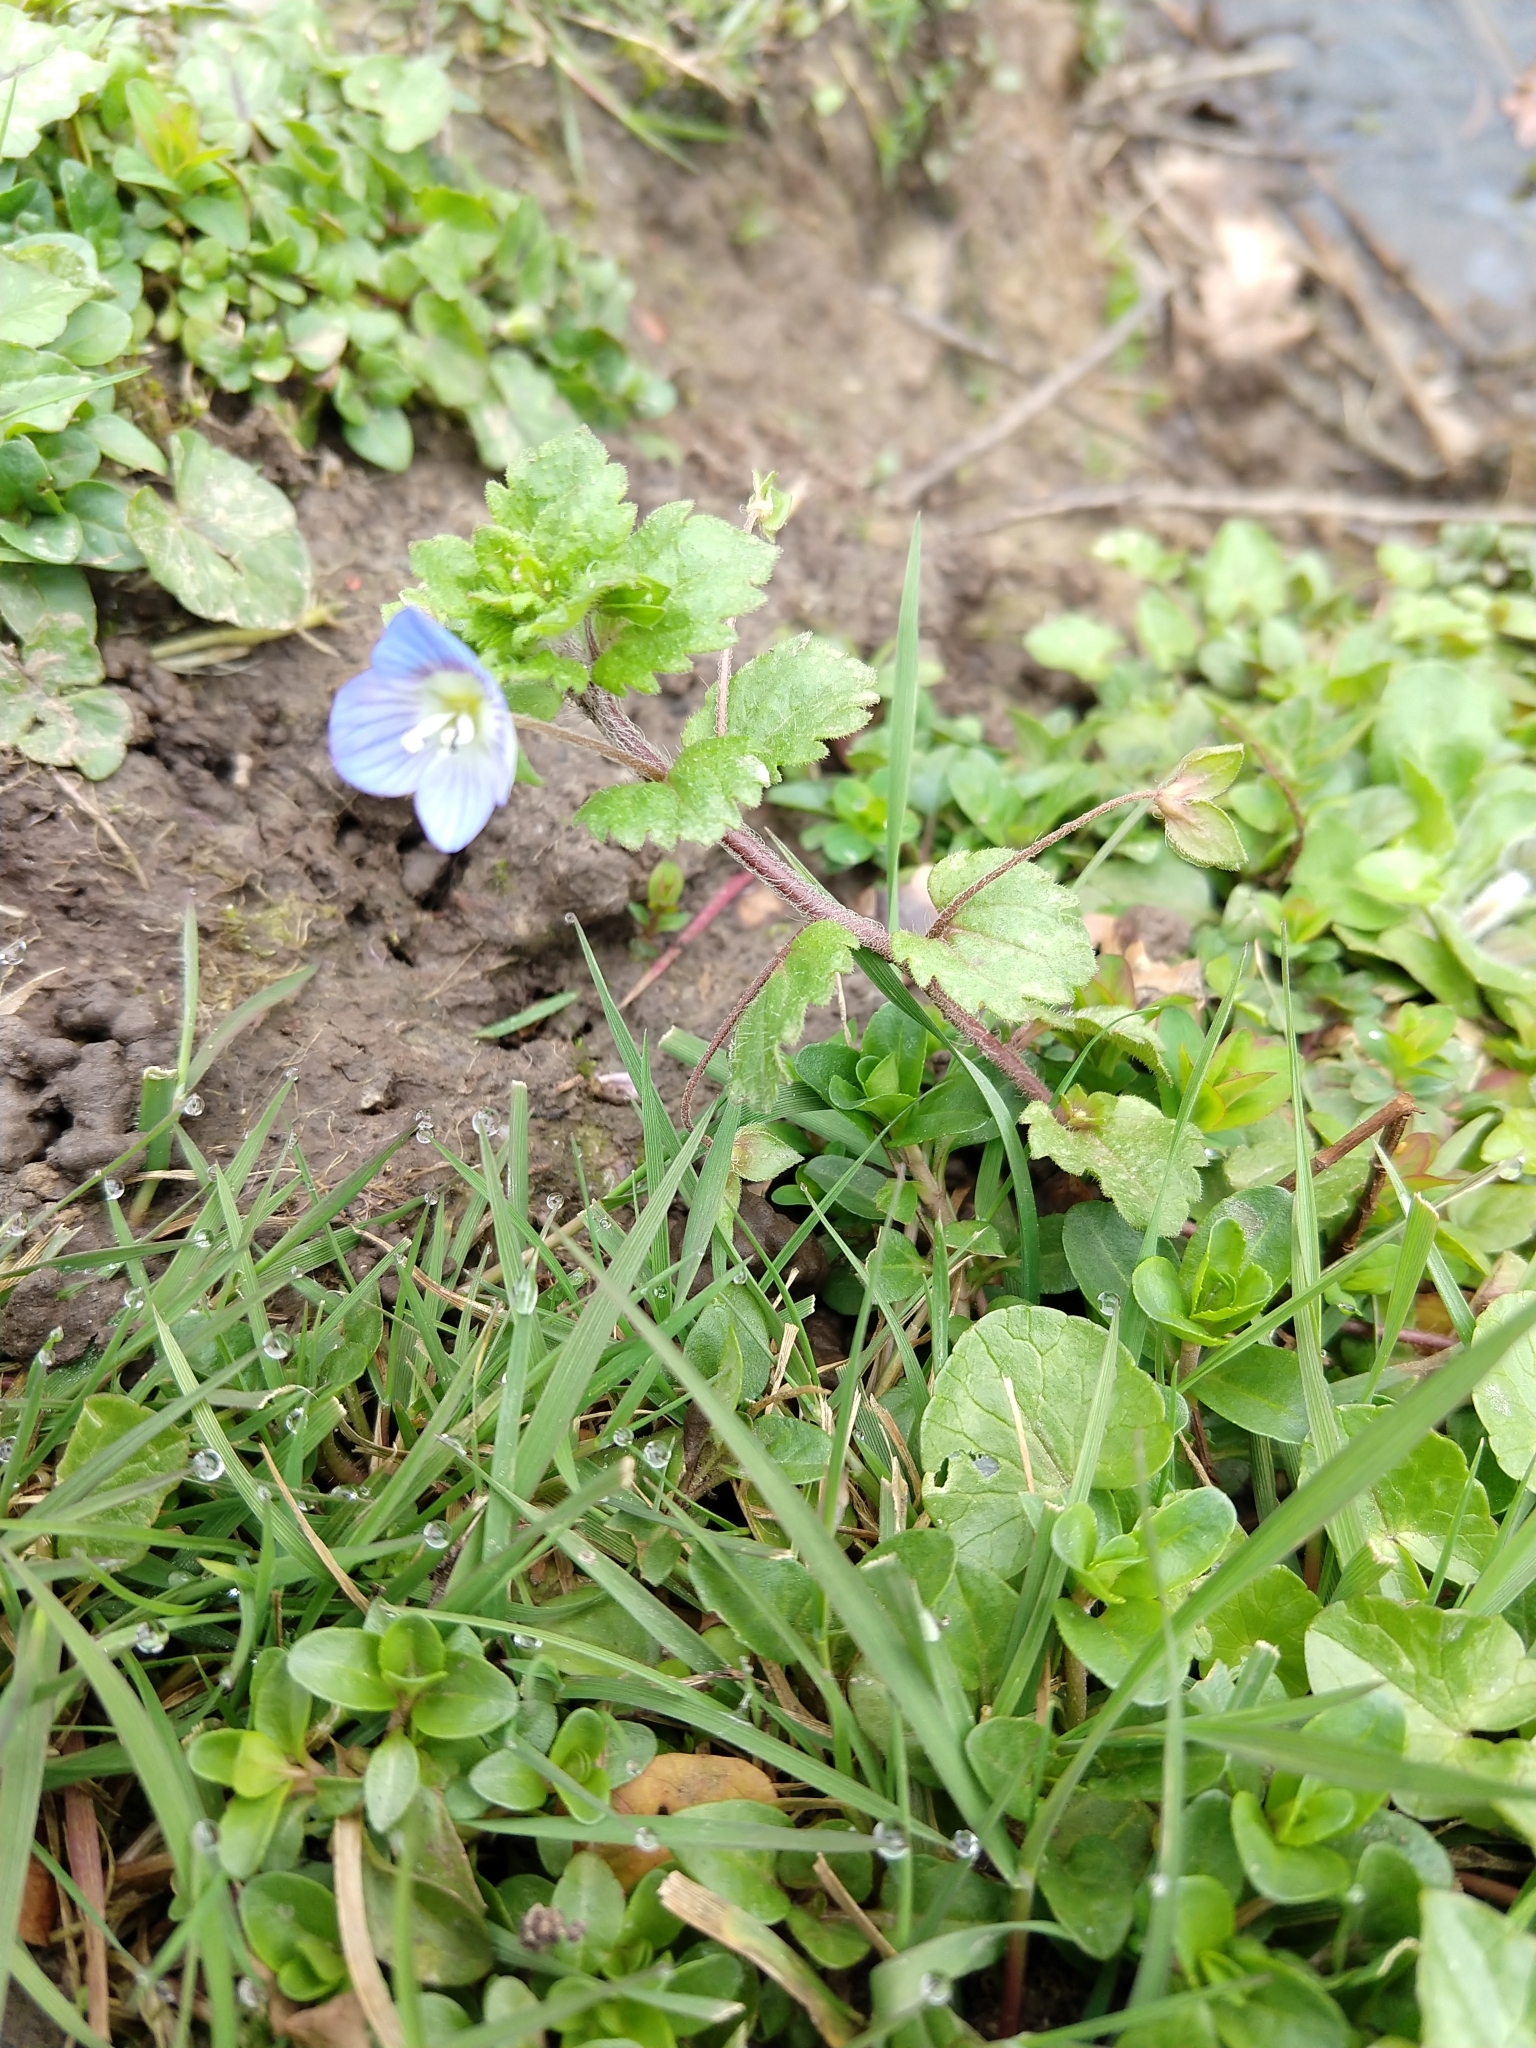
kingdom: Plantae
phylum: Tracheophyta
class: Magnoliopsida
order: Lamiales
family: Plantaginaceae
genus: Veronica
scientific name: Veronica persica
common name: Common field-speedwell
